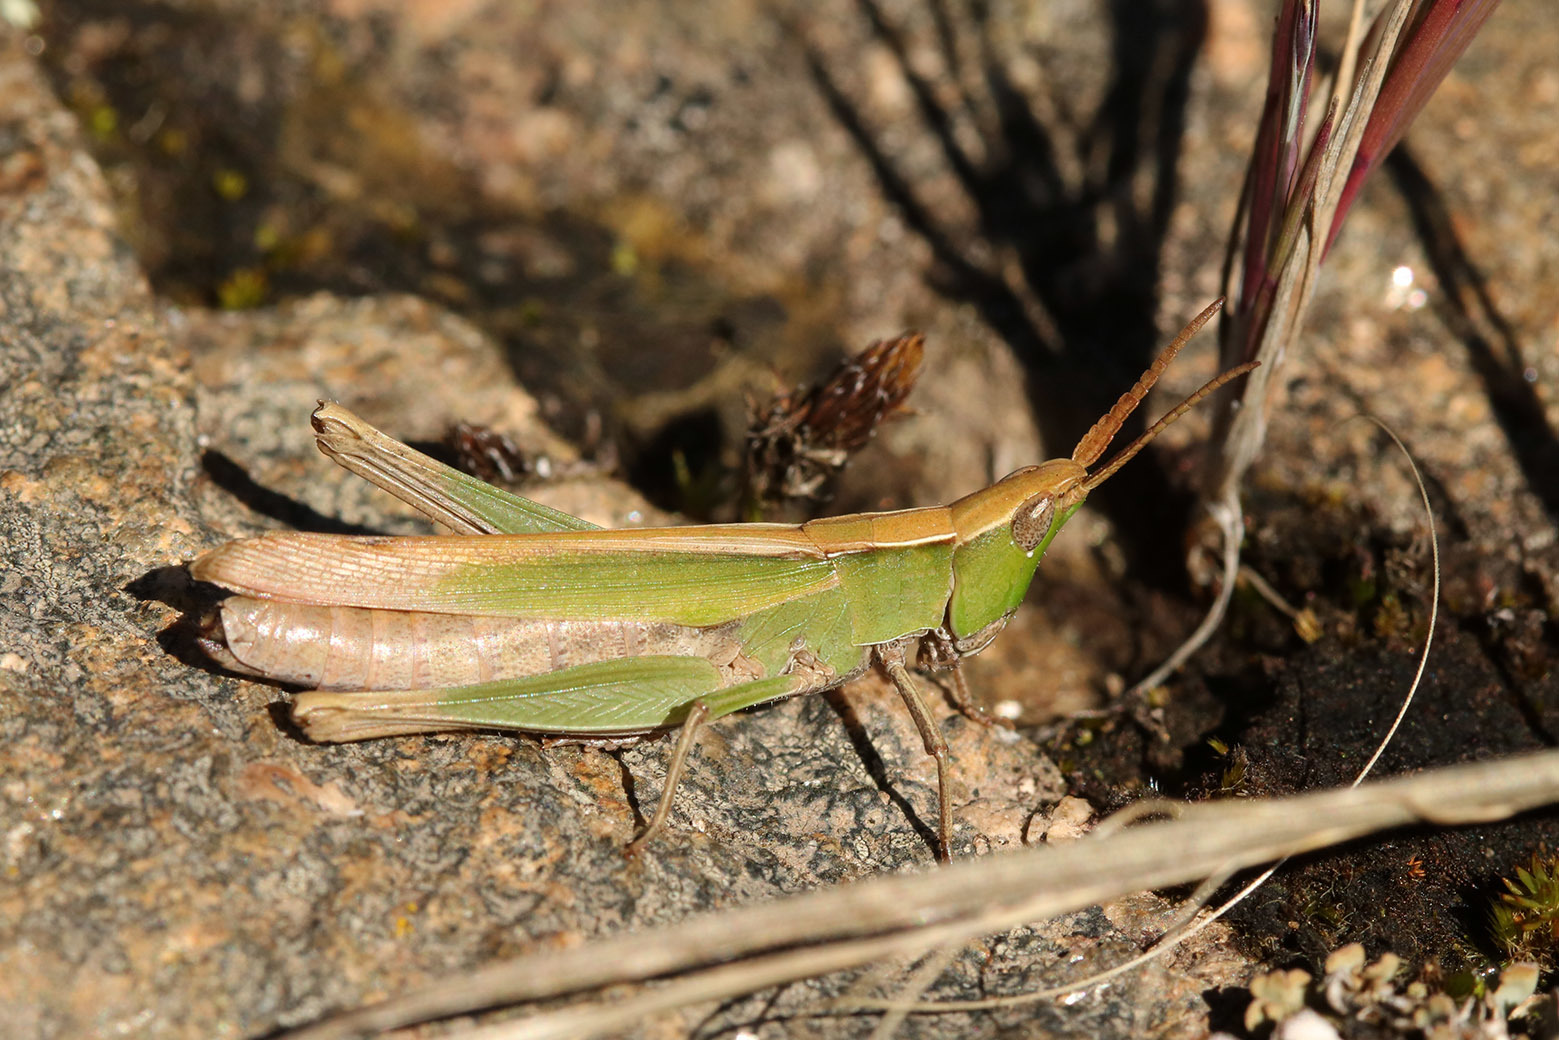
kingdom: Animalia
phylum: Arthropoda
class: Insecta
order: Orthoptera
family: Acrididae
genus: Allotruxalis
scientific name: Allotruxalis gracilis
